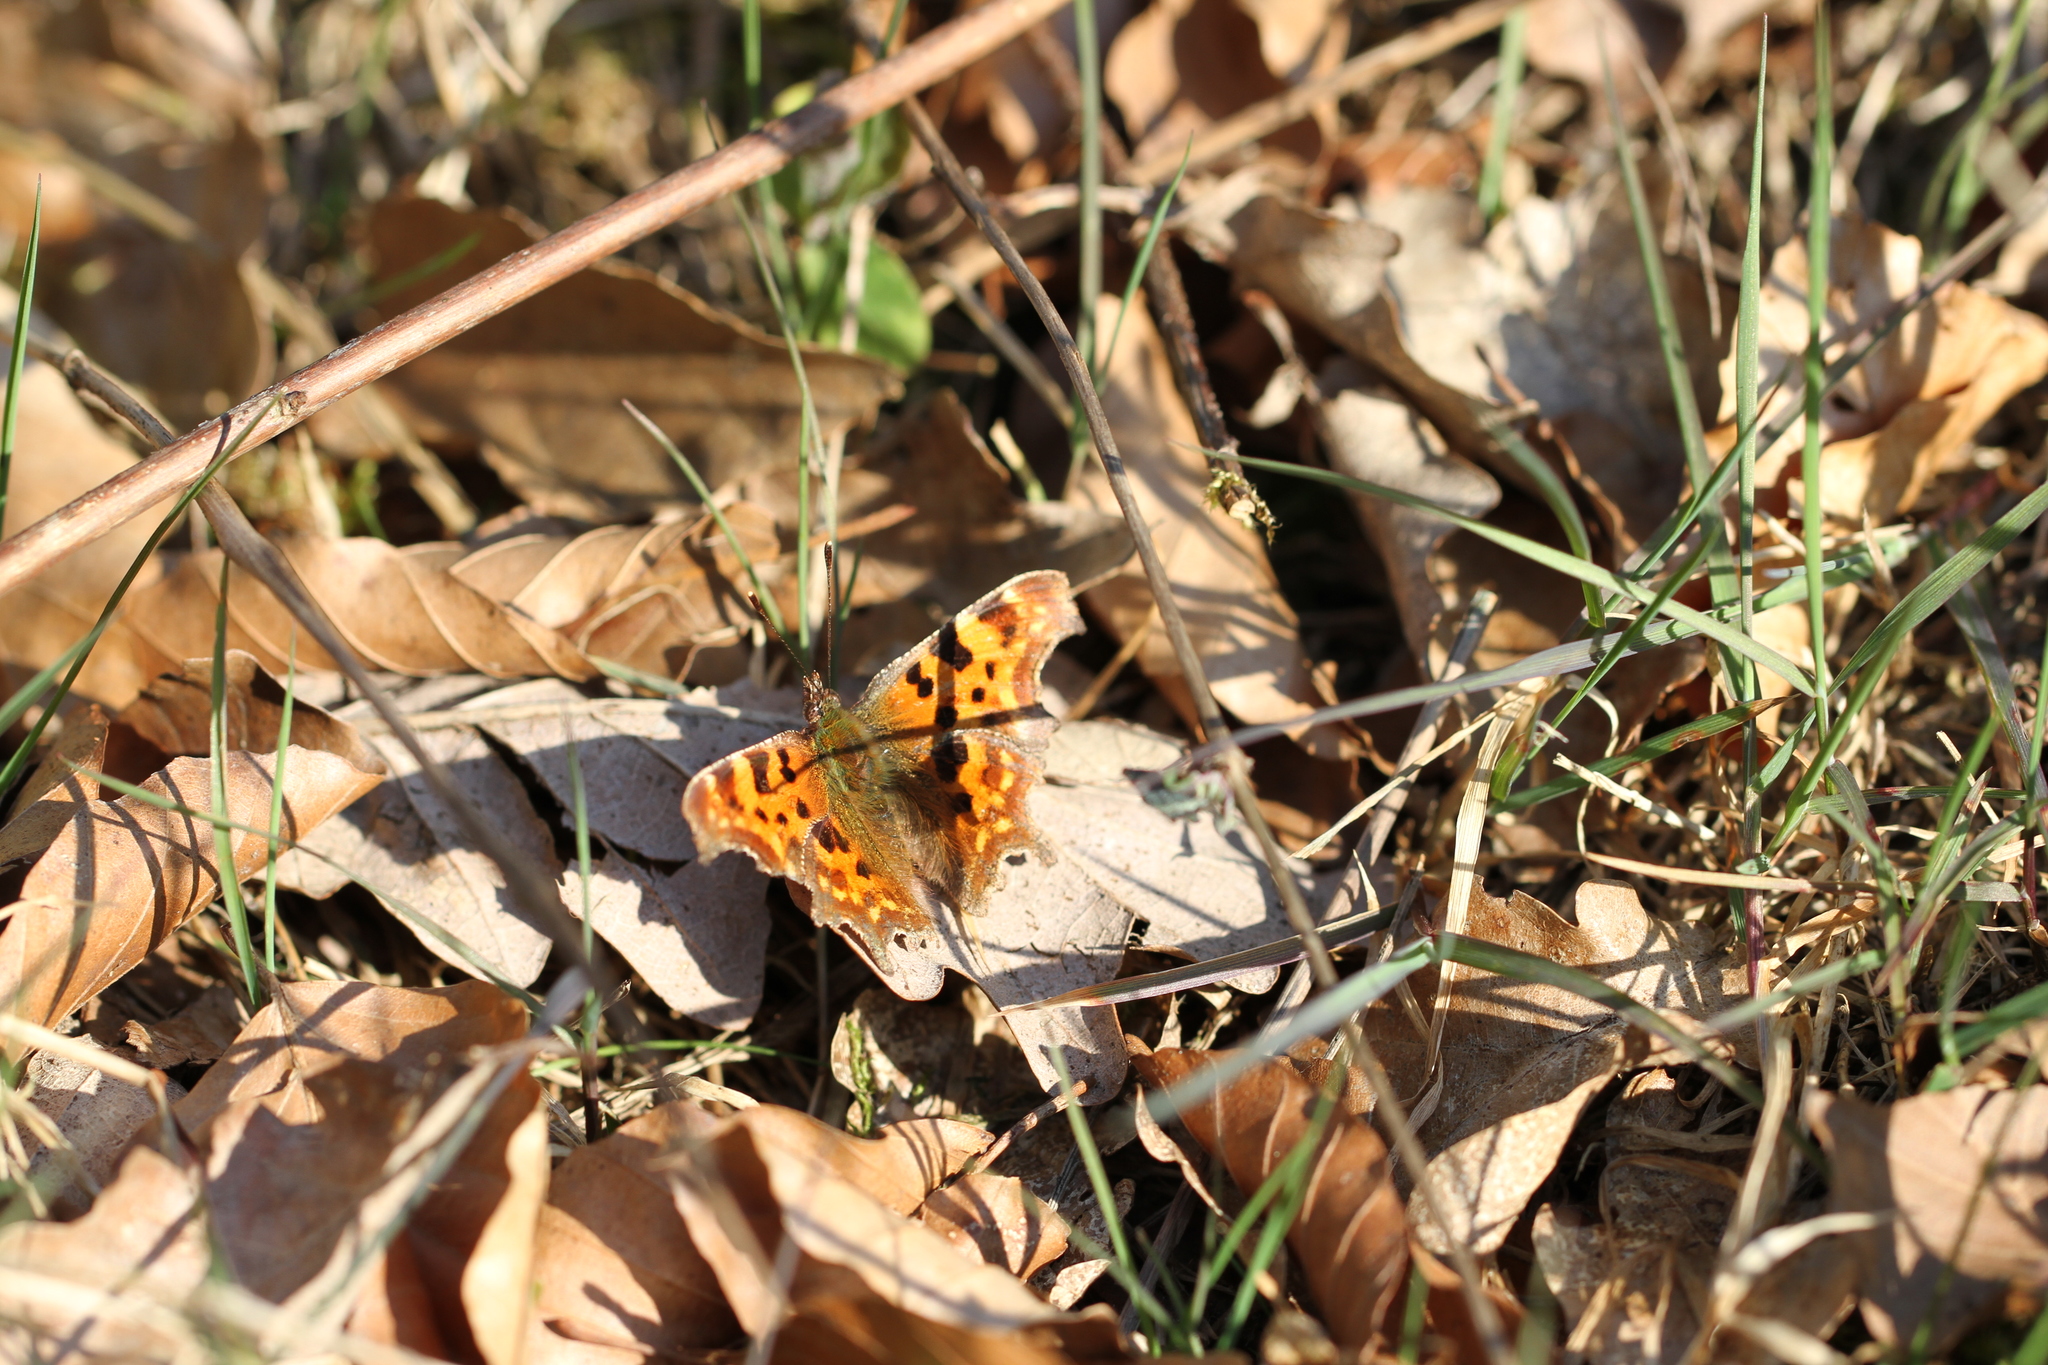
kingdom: Animalia
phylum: Arthropoda
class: Insecta
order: Lepidoptera
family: Nymphalidae
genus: Polygonia
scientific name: Polygonia c-album
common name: Comma
